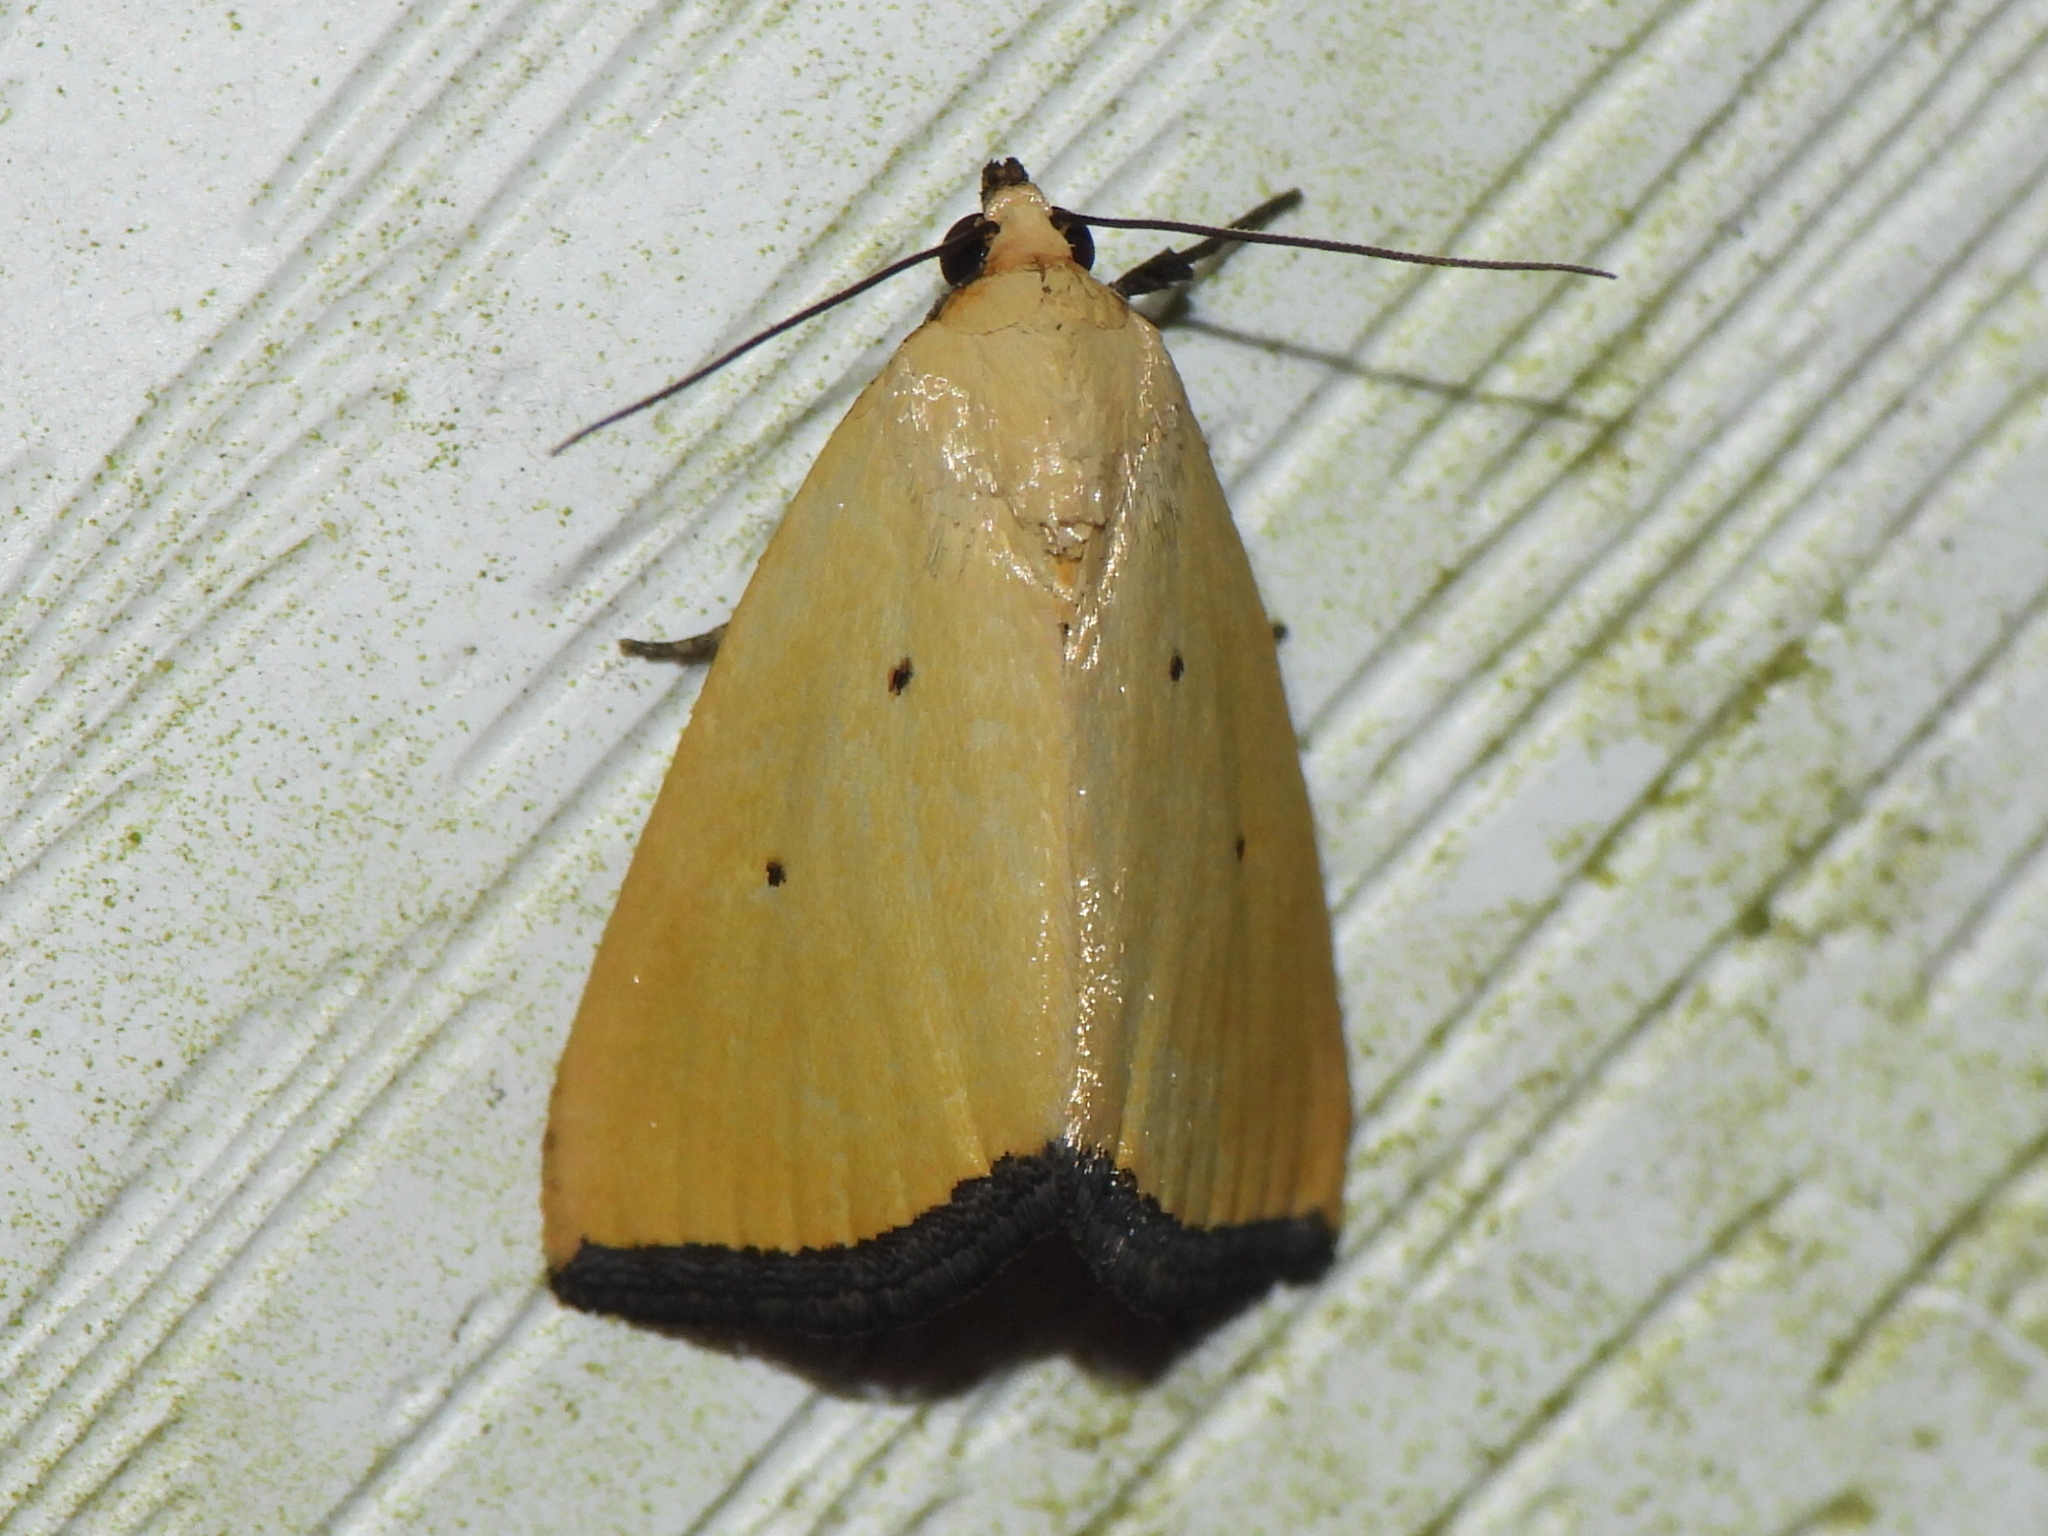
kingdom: Animalia
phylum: Arthropoda
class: Insecta
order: Lepidoptera
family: Noctuidae
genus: Marimatha
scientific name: Marimatha nigrofimbria
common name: Black-bordered lemon moth
